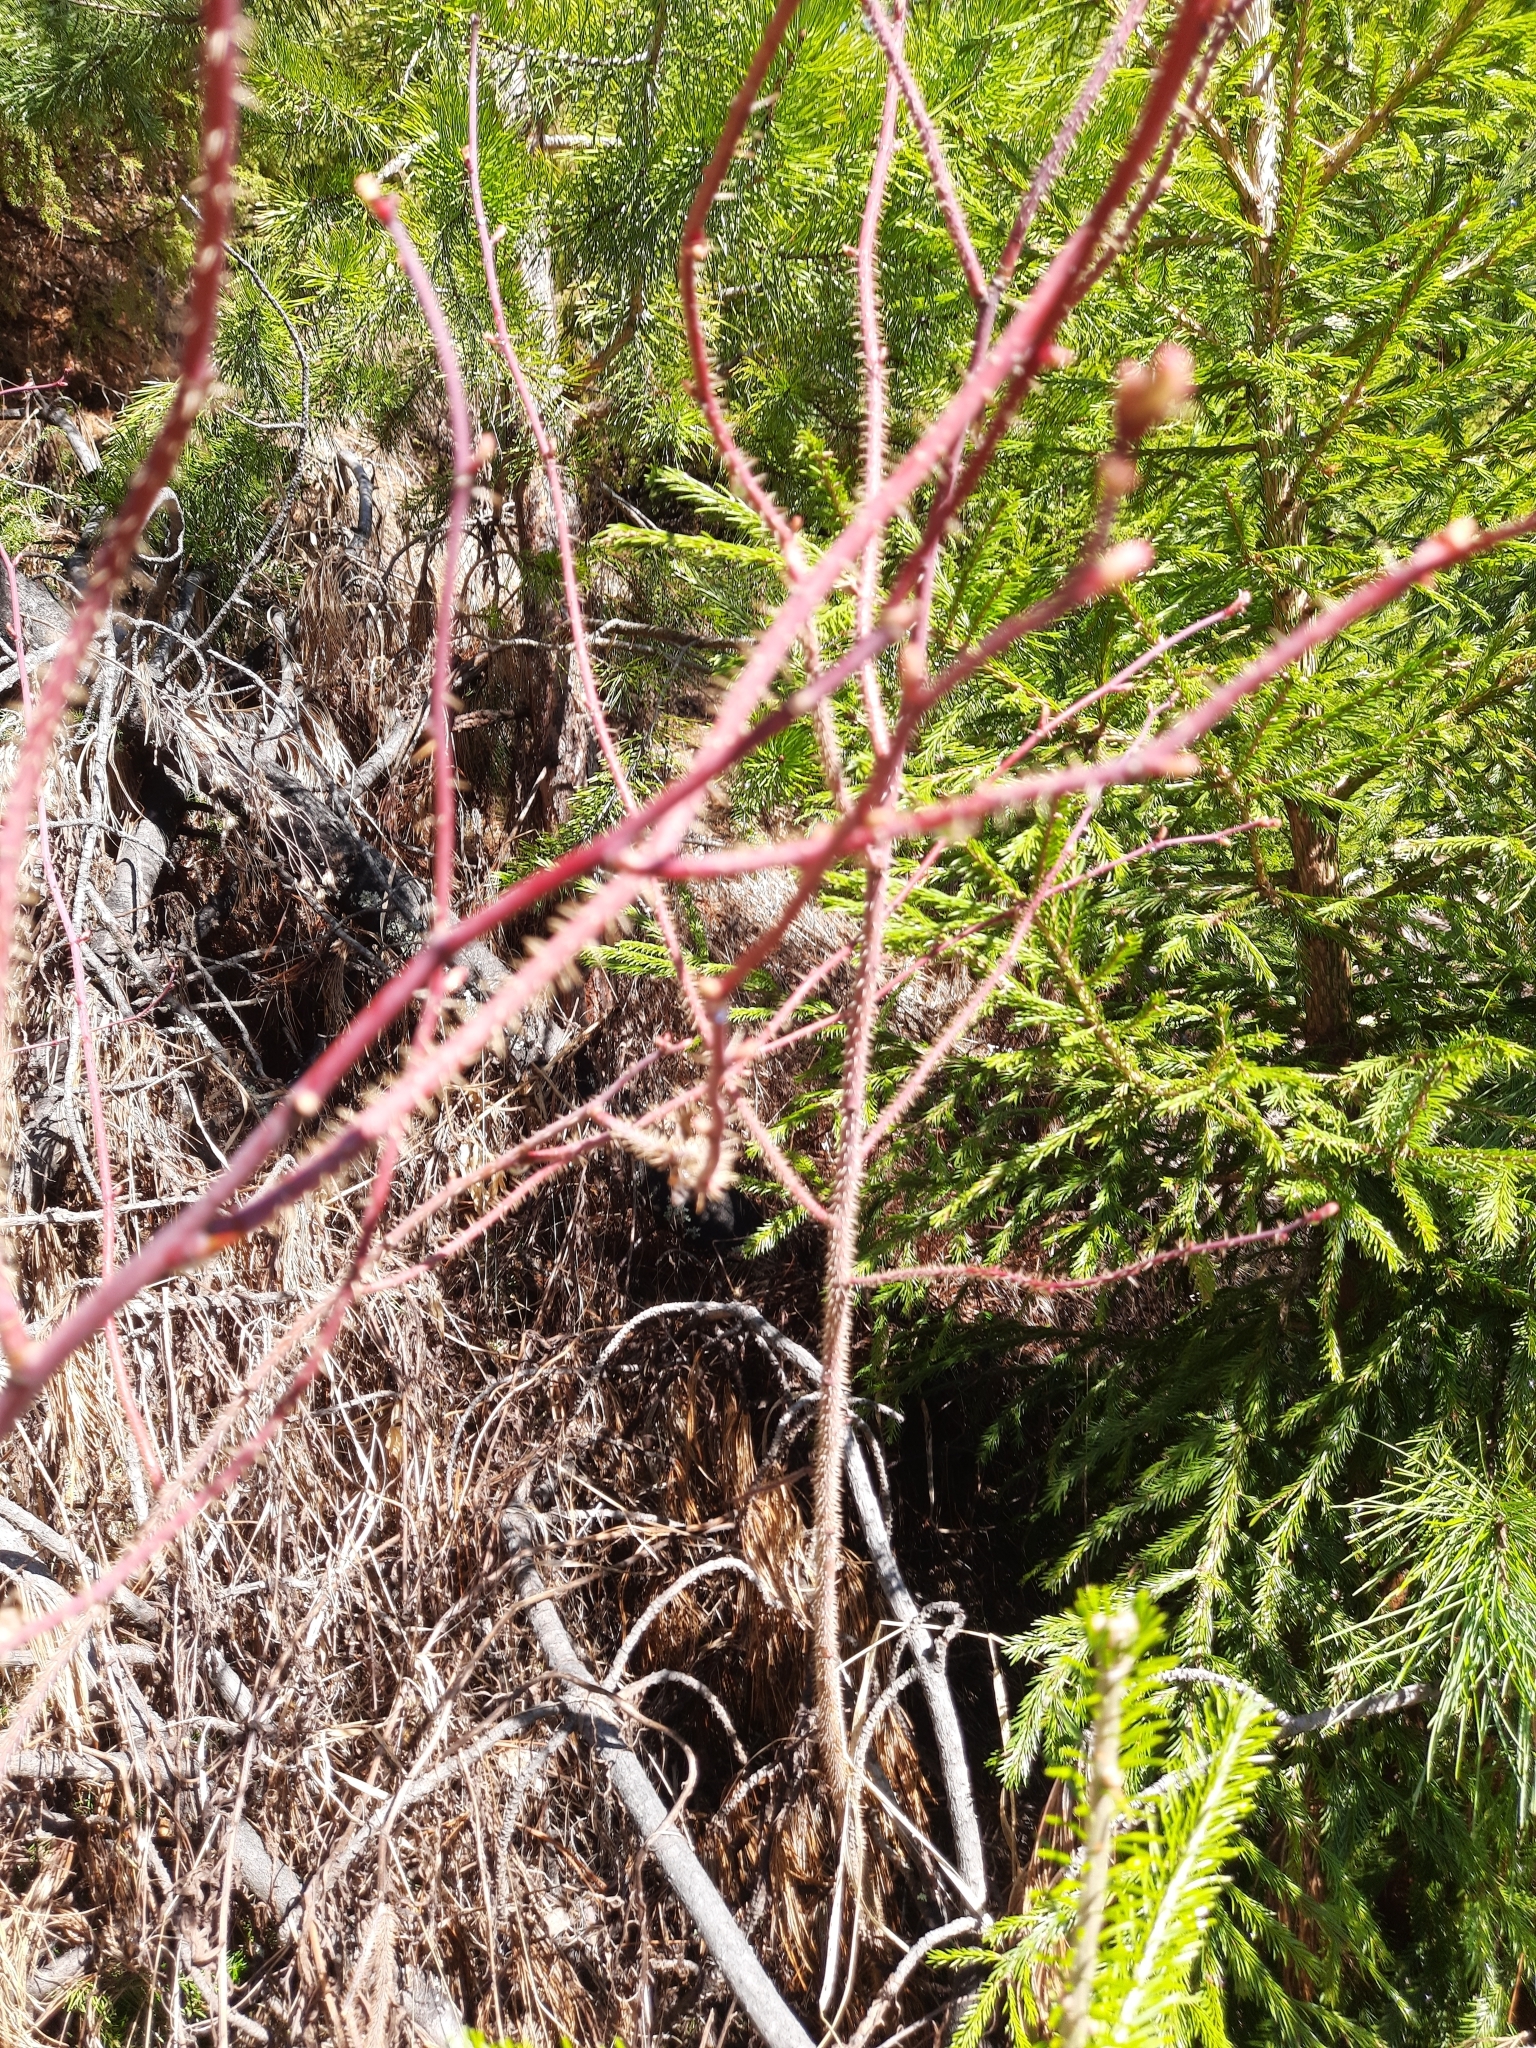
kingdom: Plantae
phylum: Tracheophyta
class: Magnoliopsida
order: Rosales
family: Rosaceae
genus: Rosa
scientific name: Rosa acicularis
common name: Prickly rose
